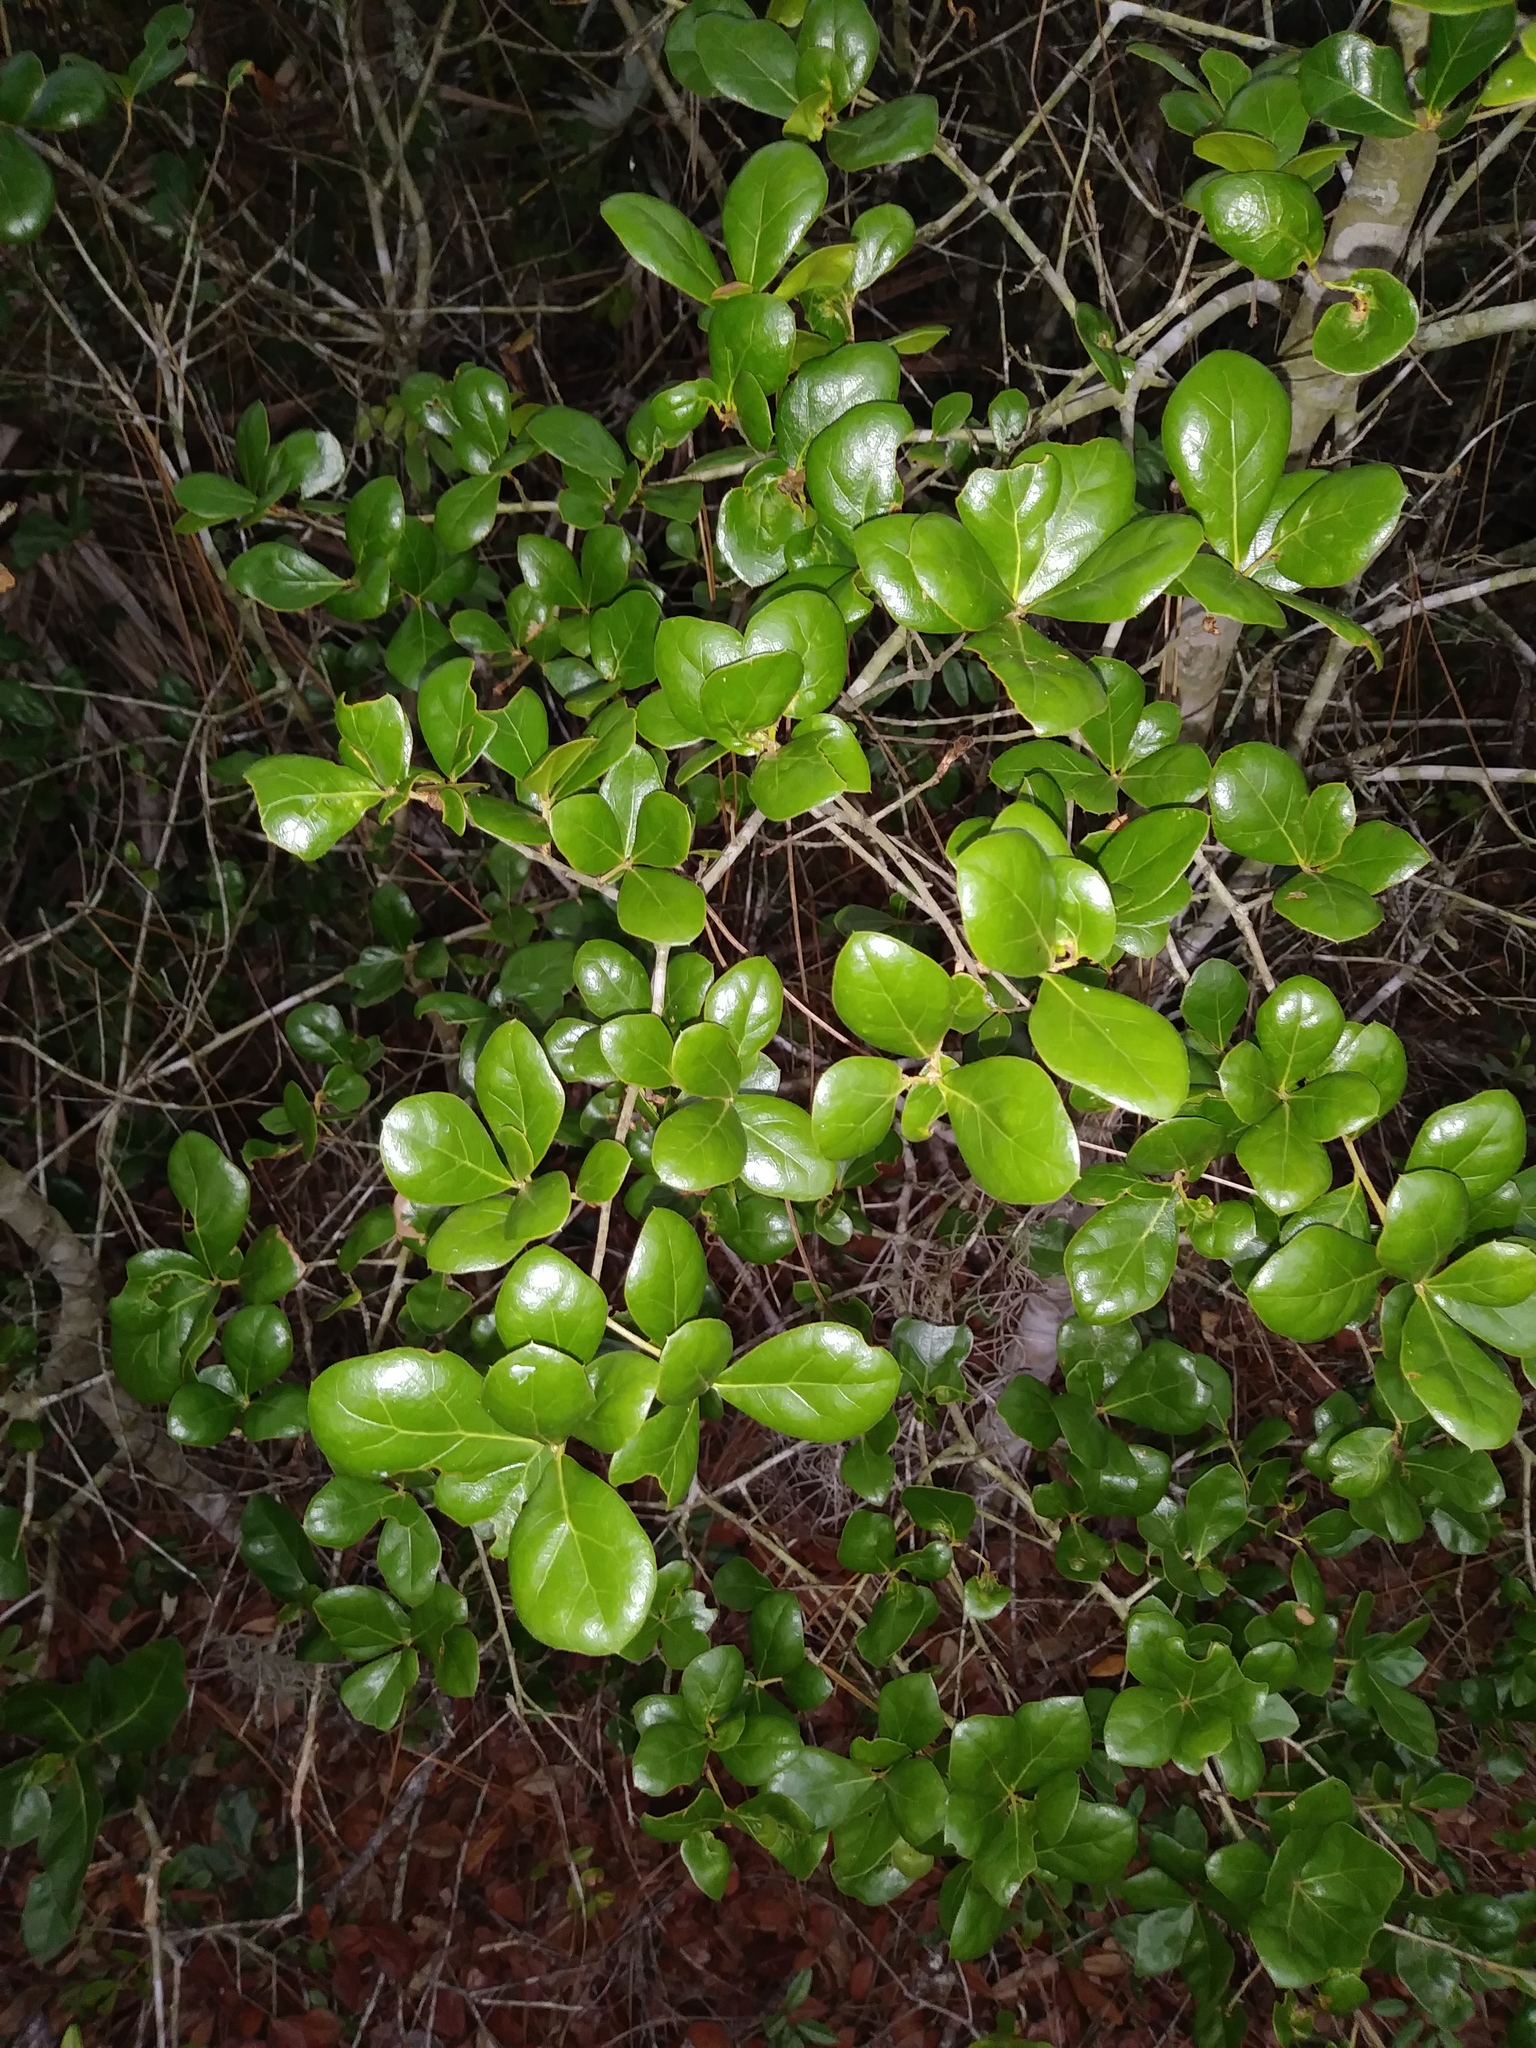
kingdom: Plantae
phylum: Tracheophyta
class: Magnoliopsida
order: Fagales
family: Fagaceae
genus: Quercus
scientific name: Quercus myrtifolia
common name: Myrtle oak
